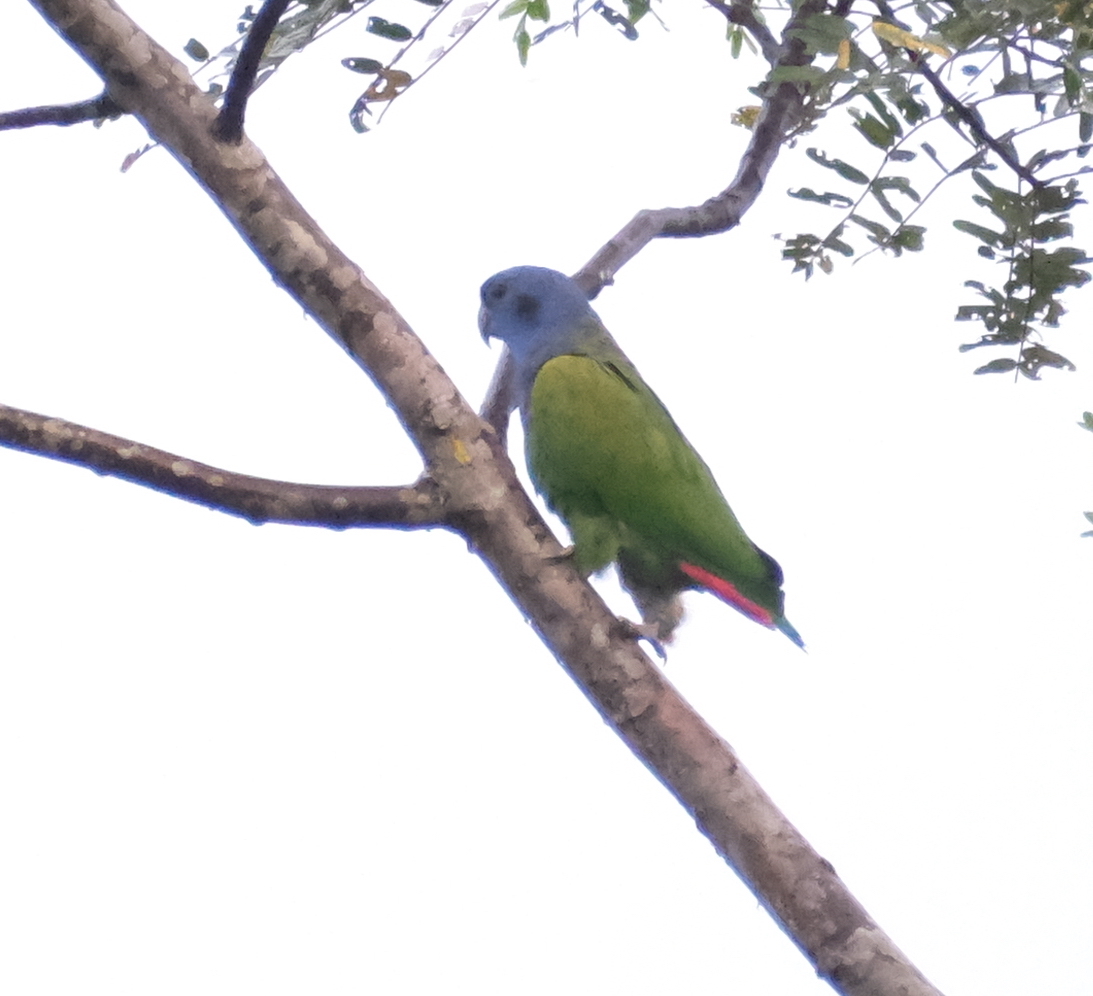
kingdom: Animalia
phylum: Chordata
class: Aves
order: Psittaciformes
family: Psittacidae
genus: Pionus
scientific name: Pionus menstruus
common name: Blue-headed parrot
